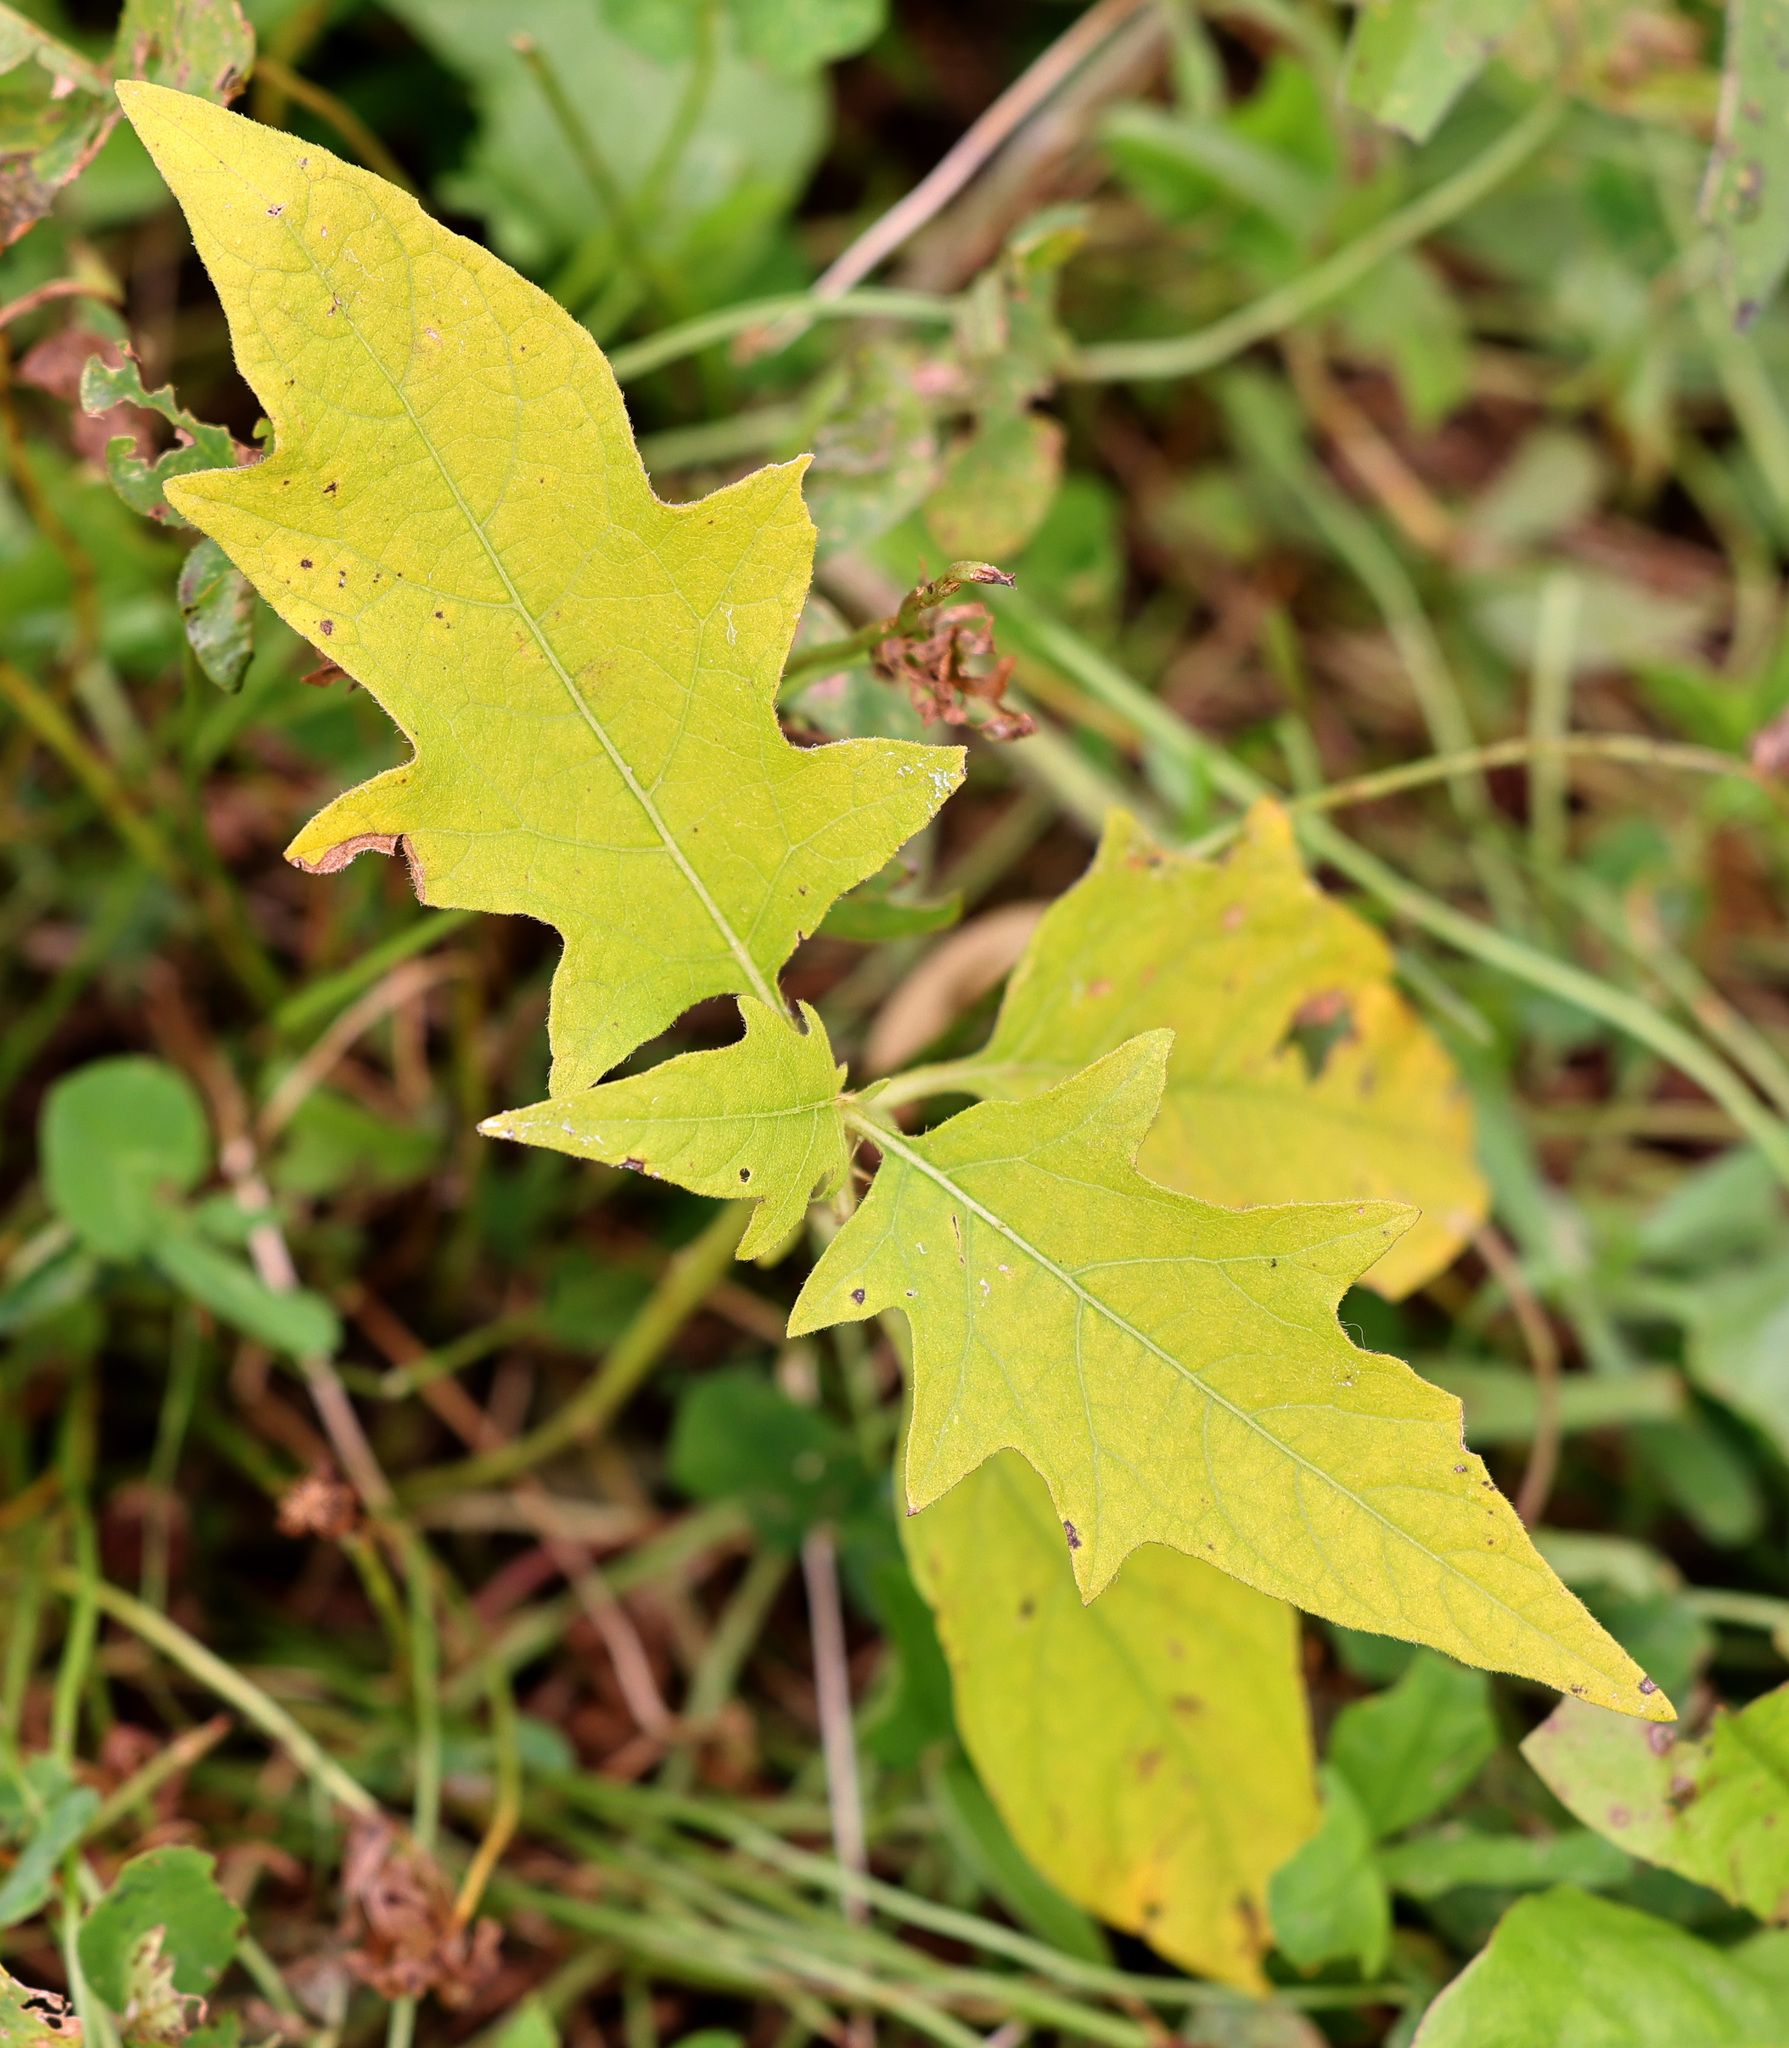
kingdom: Plantae
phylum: Tracheophyta
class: Magnoliopsida
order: Solanales
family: Solanaceae
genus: Solanum
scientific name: Solanum carolinense
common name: Horse-nettle
